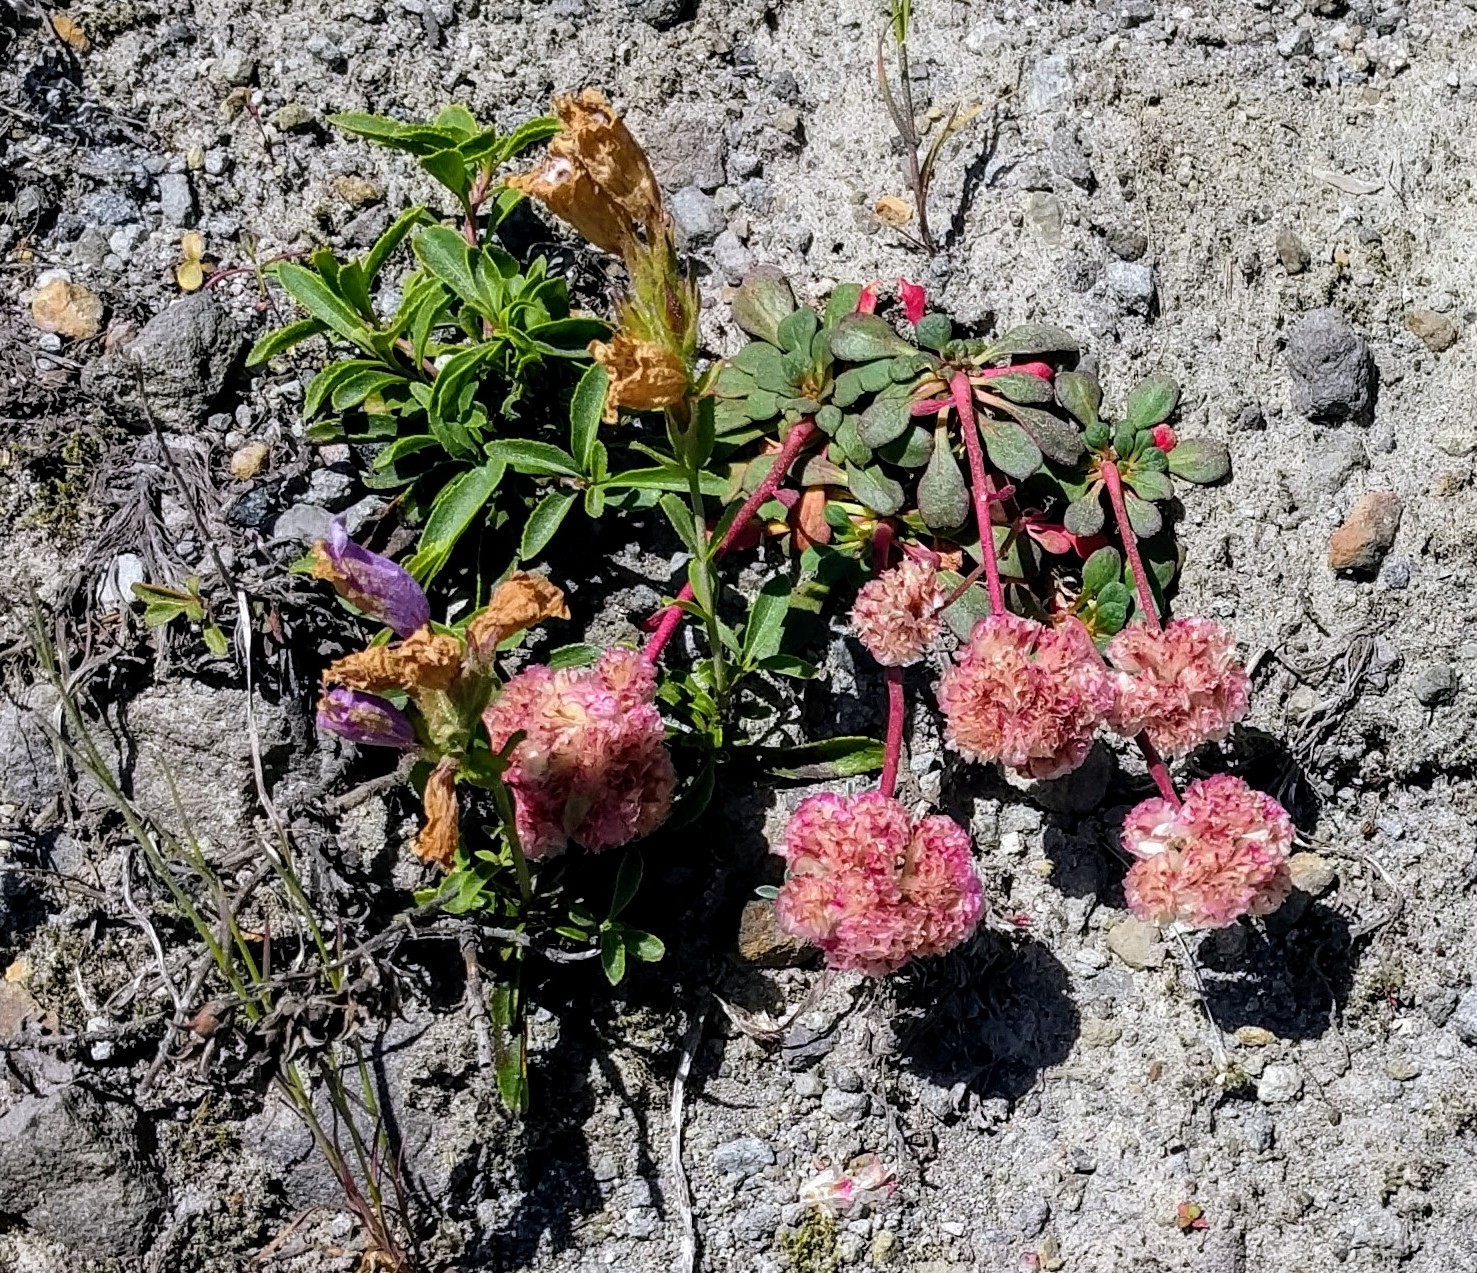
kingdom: Plantae
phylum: Tracheophyta
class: Magnoliopsida
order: Caryophyllales
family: Montiaceae
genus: Calyptridium
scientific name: Calyptridium umbellatum
